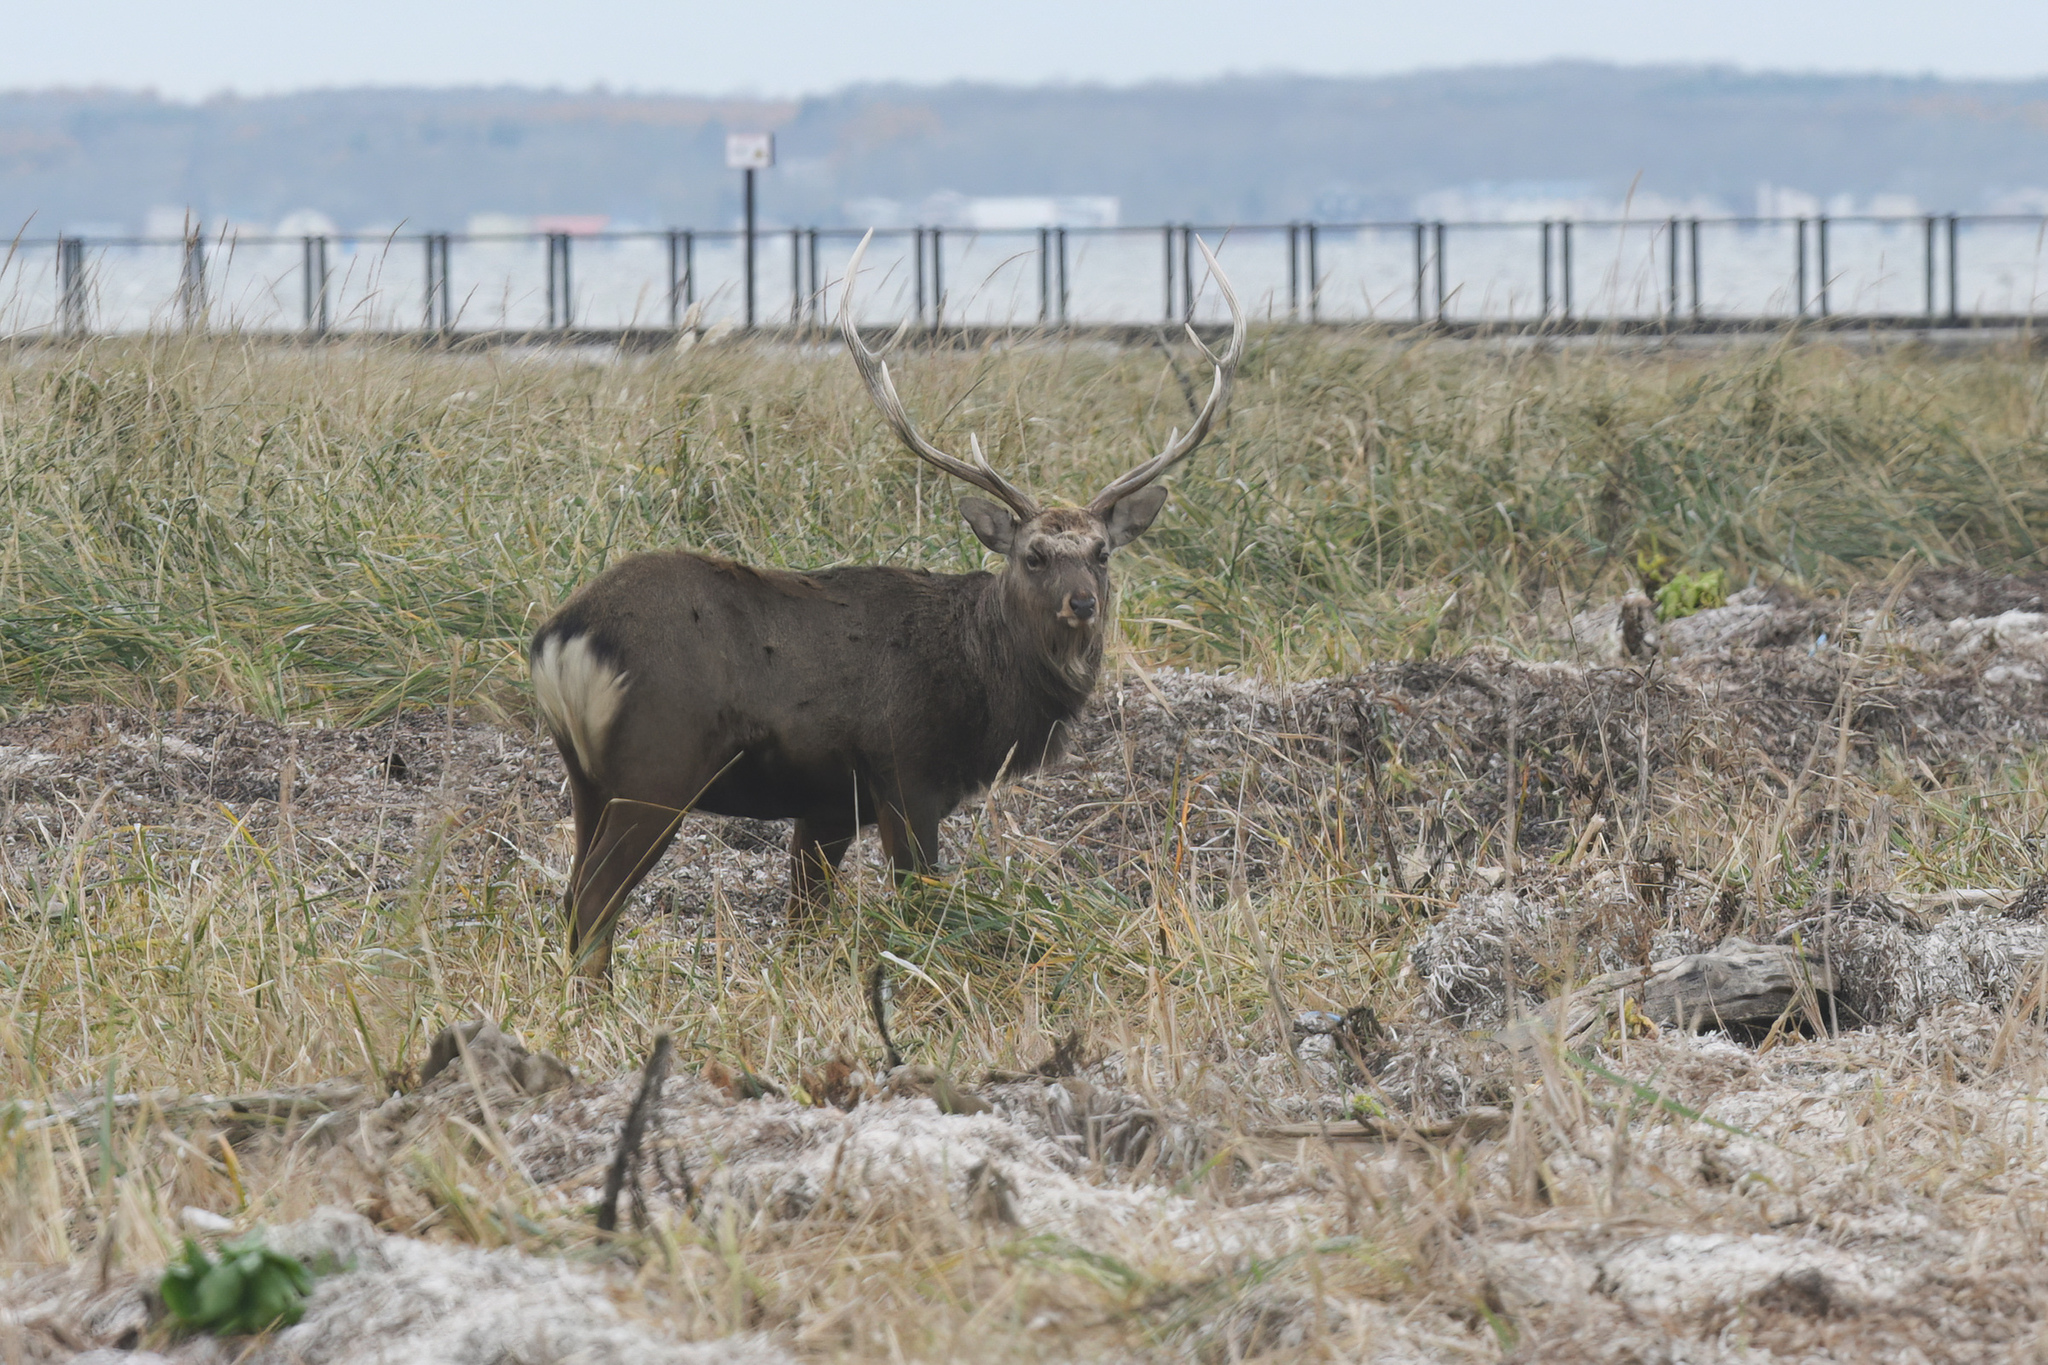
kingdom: Animalia
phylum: Chordata
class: Mammalia
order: Artiodactyla
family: Cervidae
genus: Cervus
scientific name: Cervus nippon
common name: Sika deer
